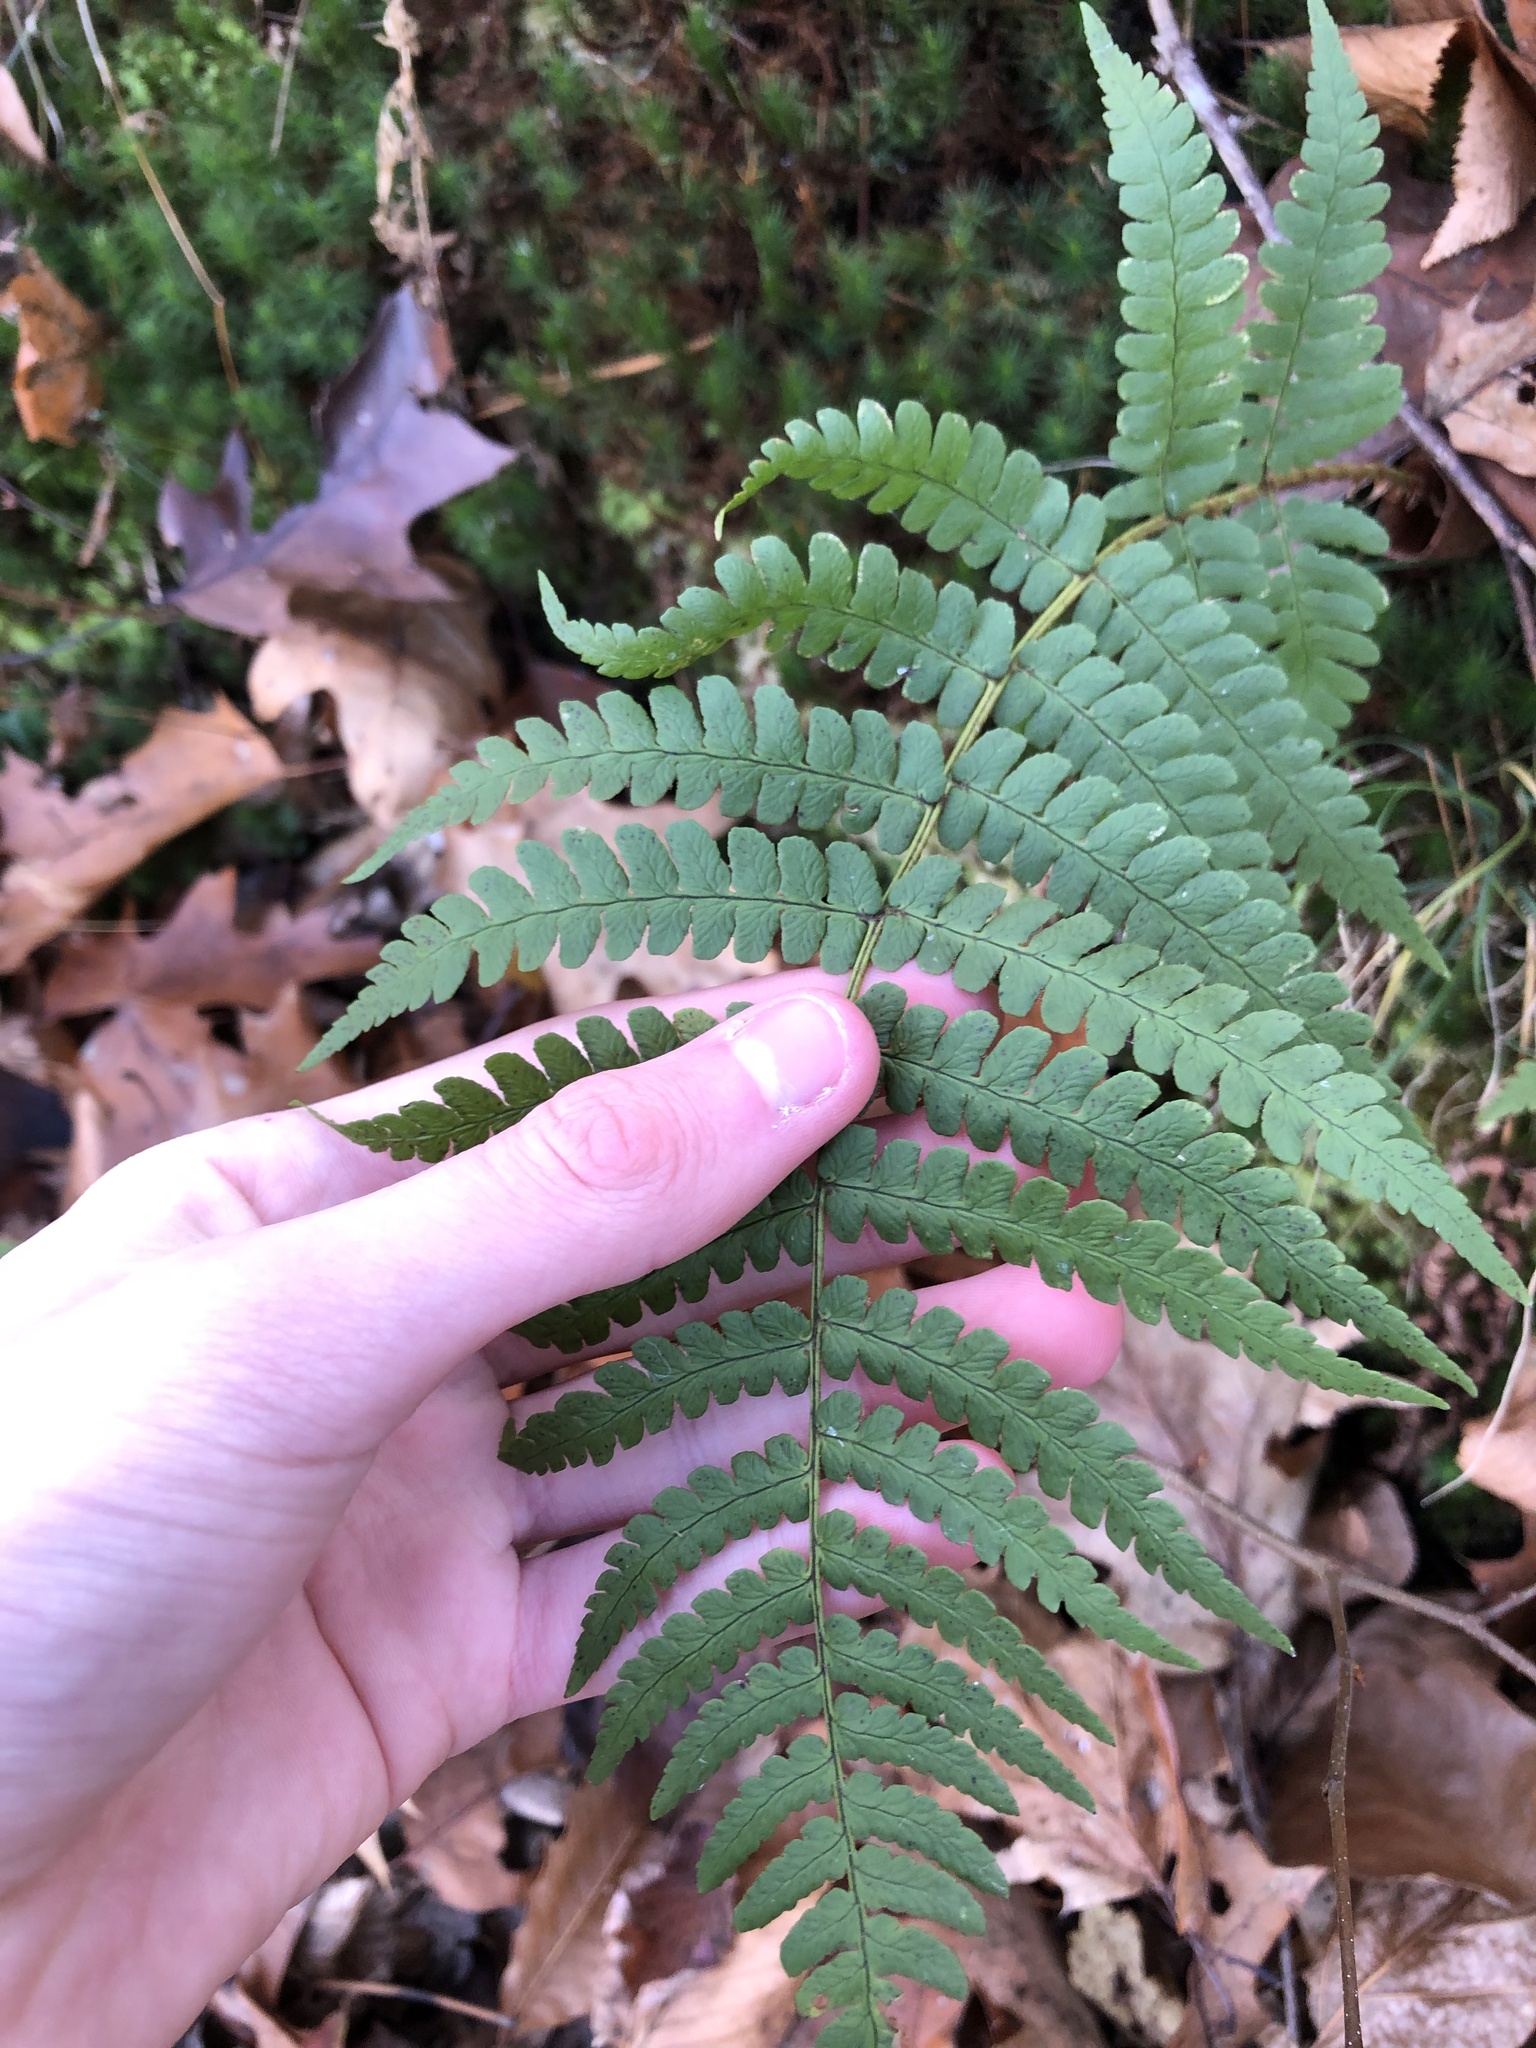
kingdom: Plantae
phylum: Tracheophyta
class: Polypodiopsida
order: Polypodiales
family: Dryopteridaceae
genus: Dryopteris
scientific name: Dryopteris marginalis
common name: Marginal wood fern
